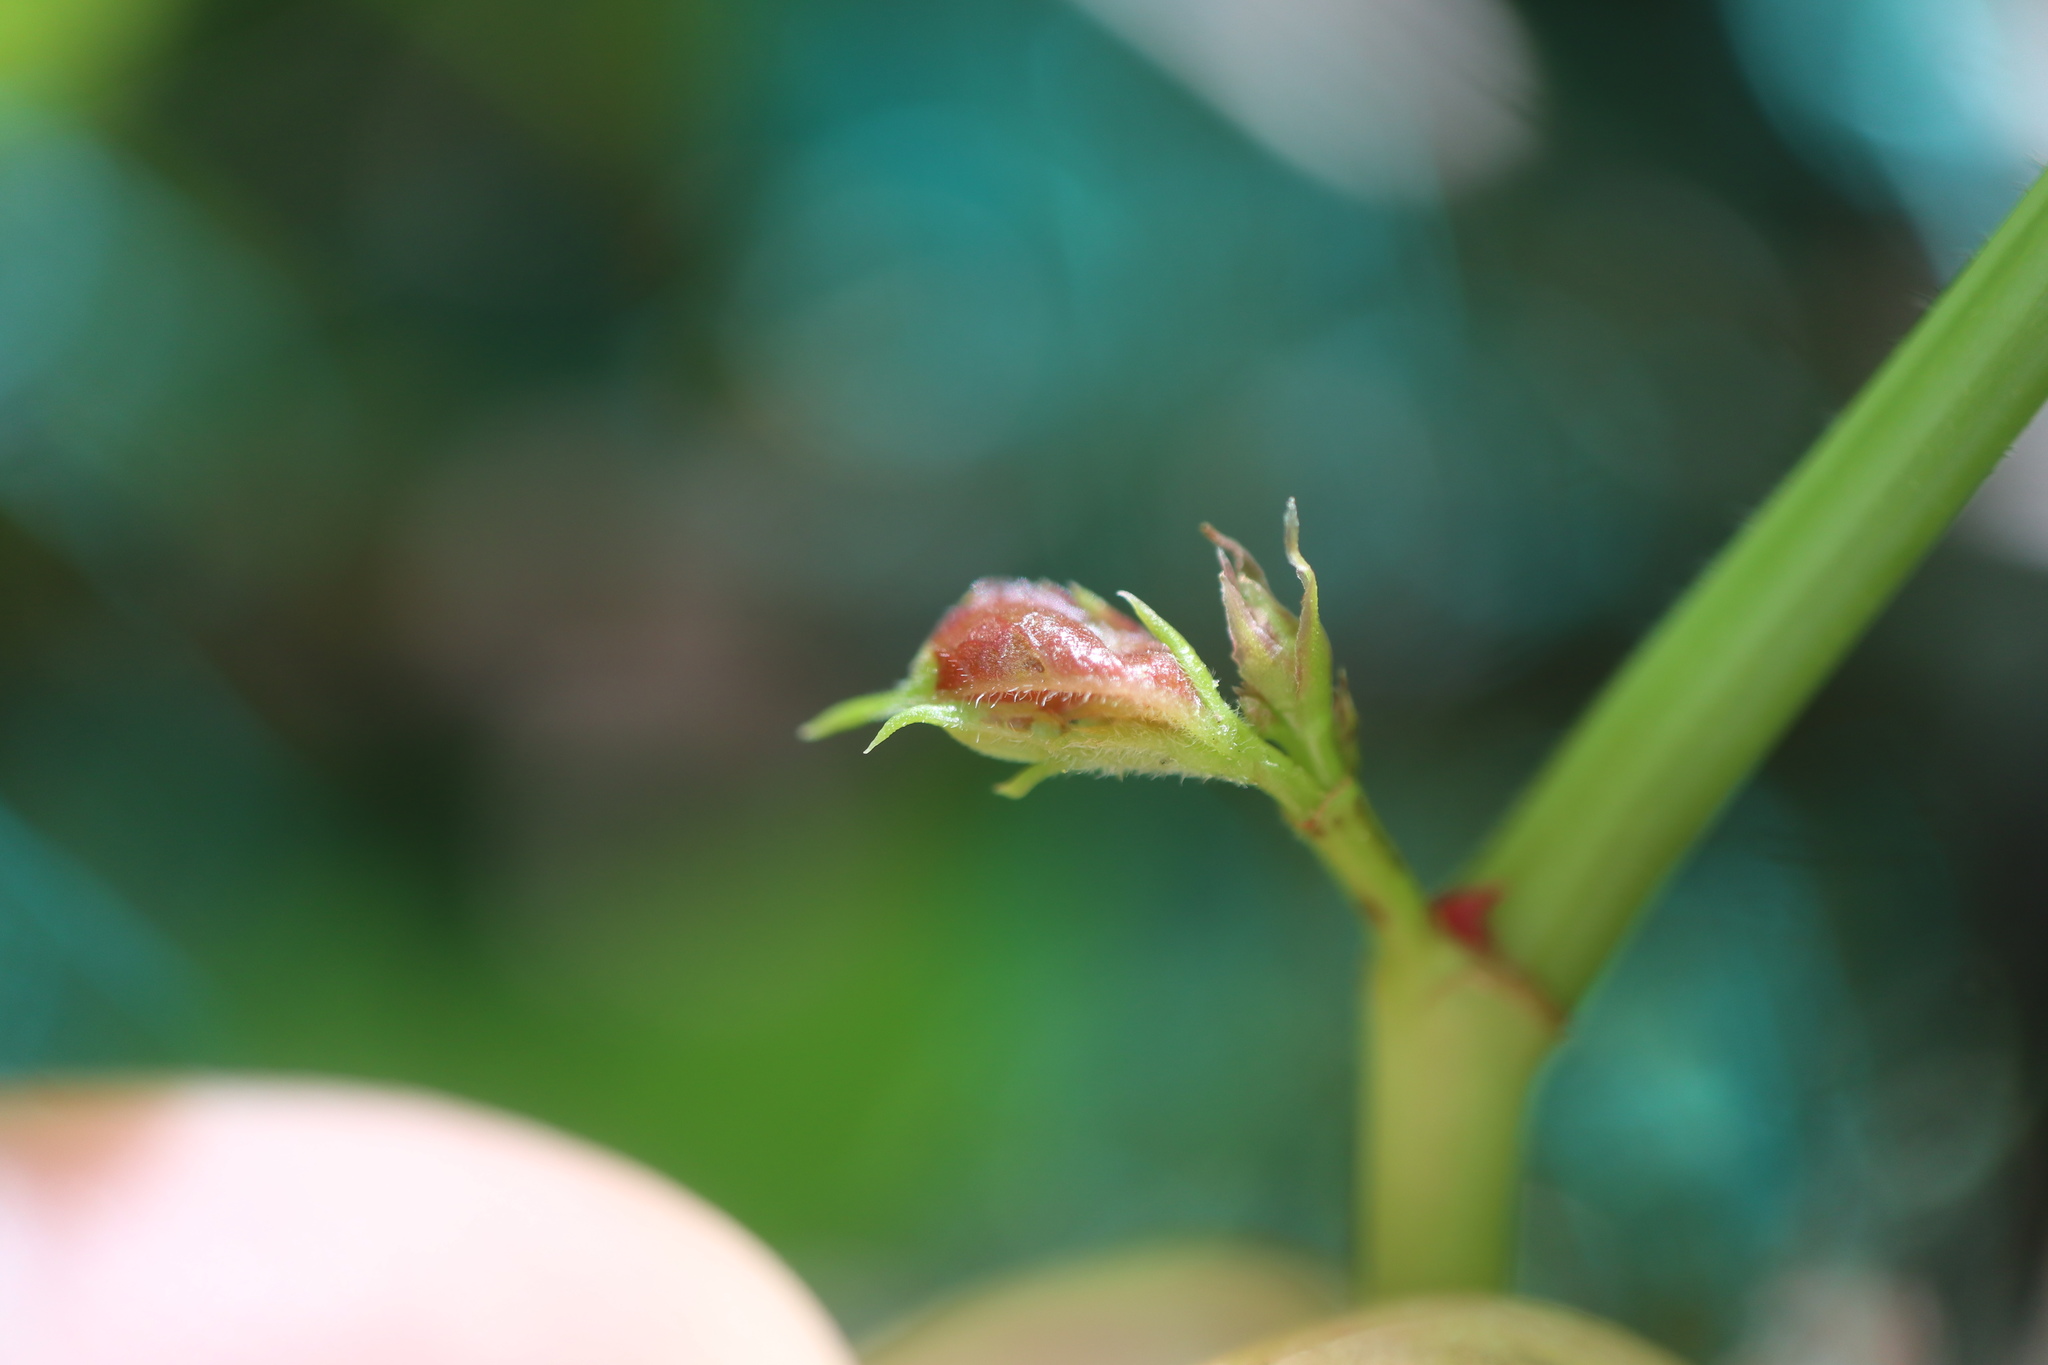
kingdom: Animalia
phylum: Arthropoda
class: Insecta
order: Diptera
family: Cecidomyiidae
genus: Dasineura
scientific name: Dasineura parthenocissi
